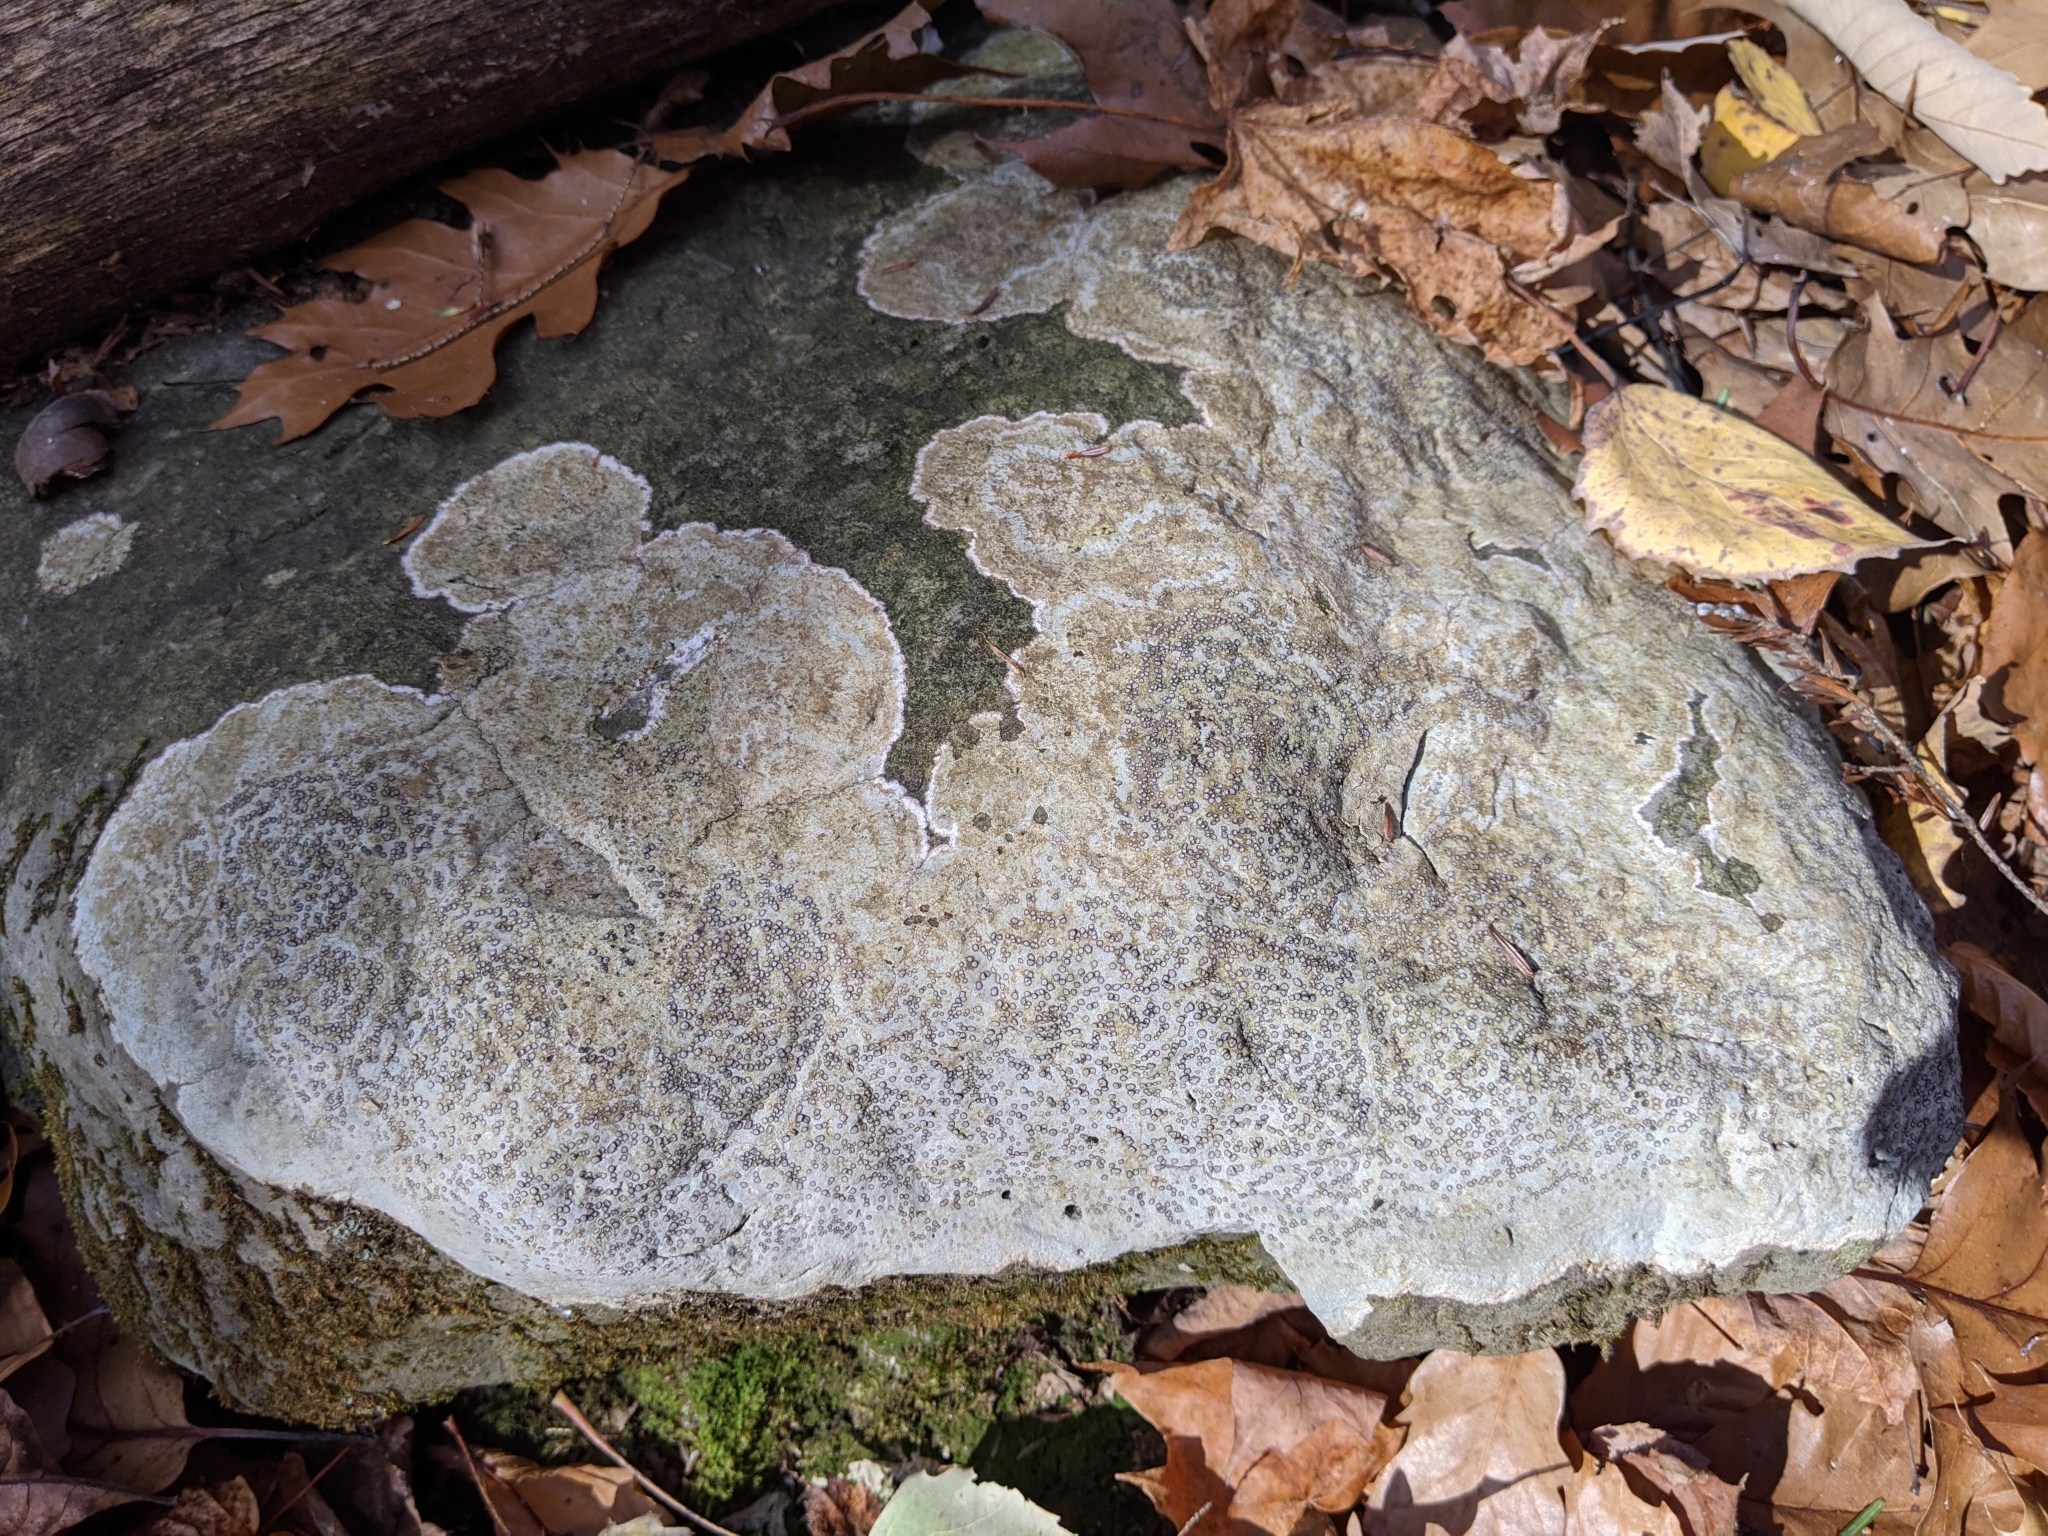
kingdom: Fungi
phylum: Ascomycota
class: Lecanoromycetes
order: Lecideales
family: Lecideaceae
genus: Porpidia
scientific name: Porpidia albocaerulescens
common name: Smokey-eyed boulder lichen
